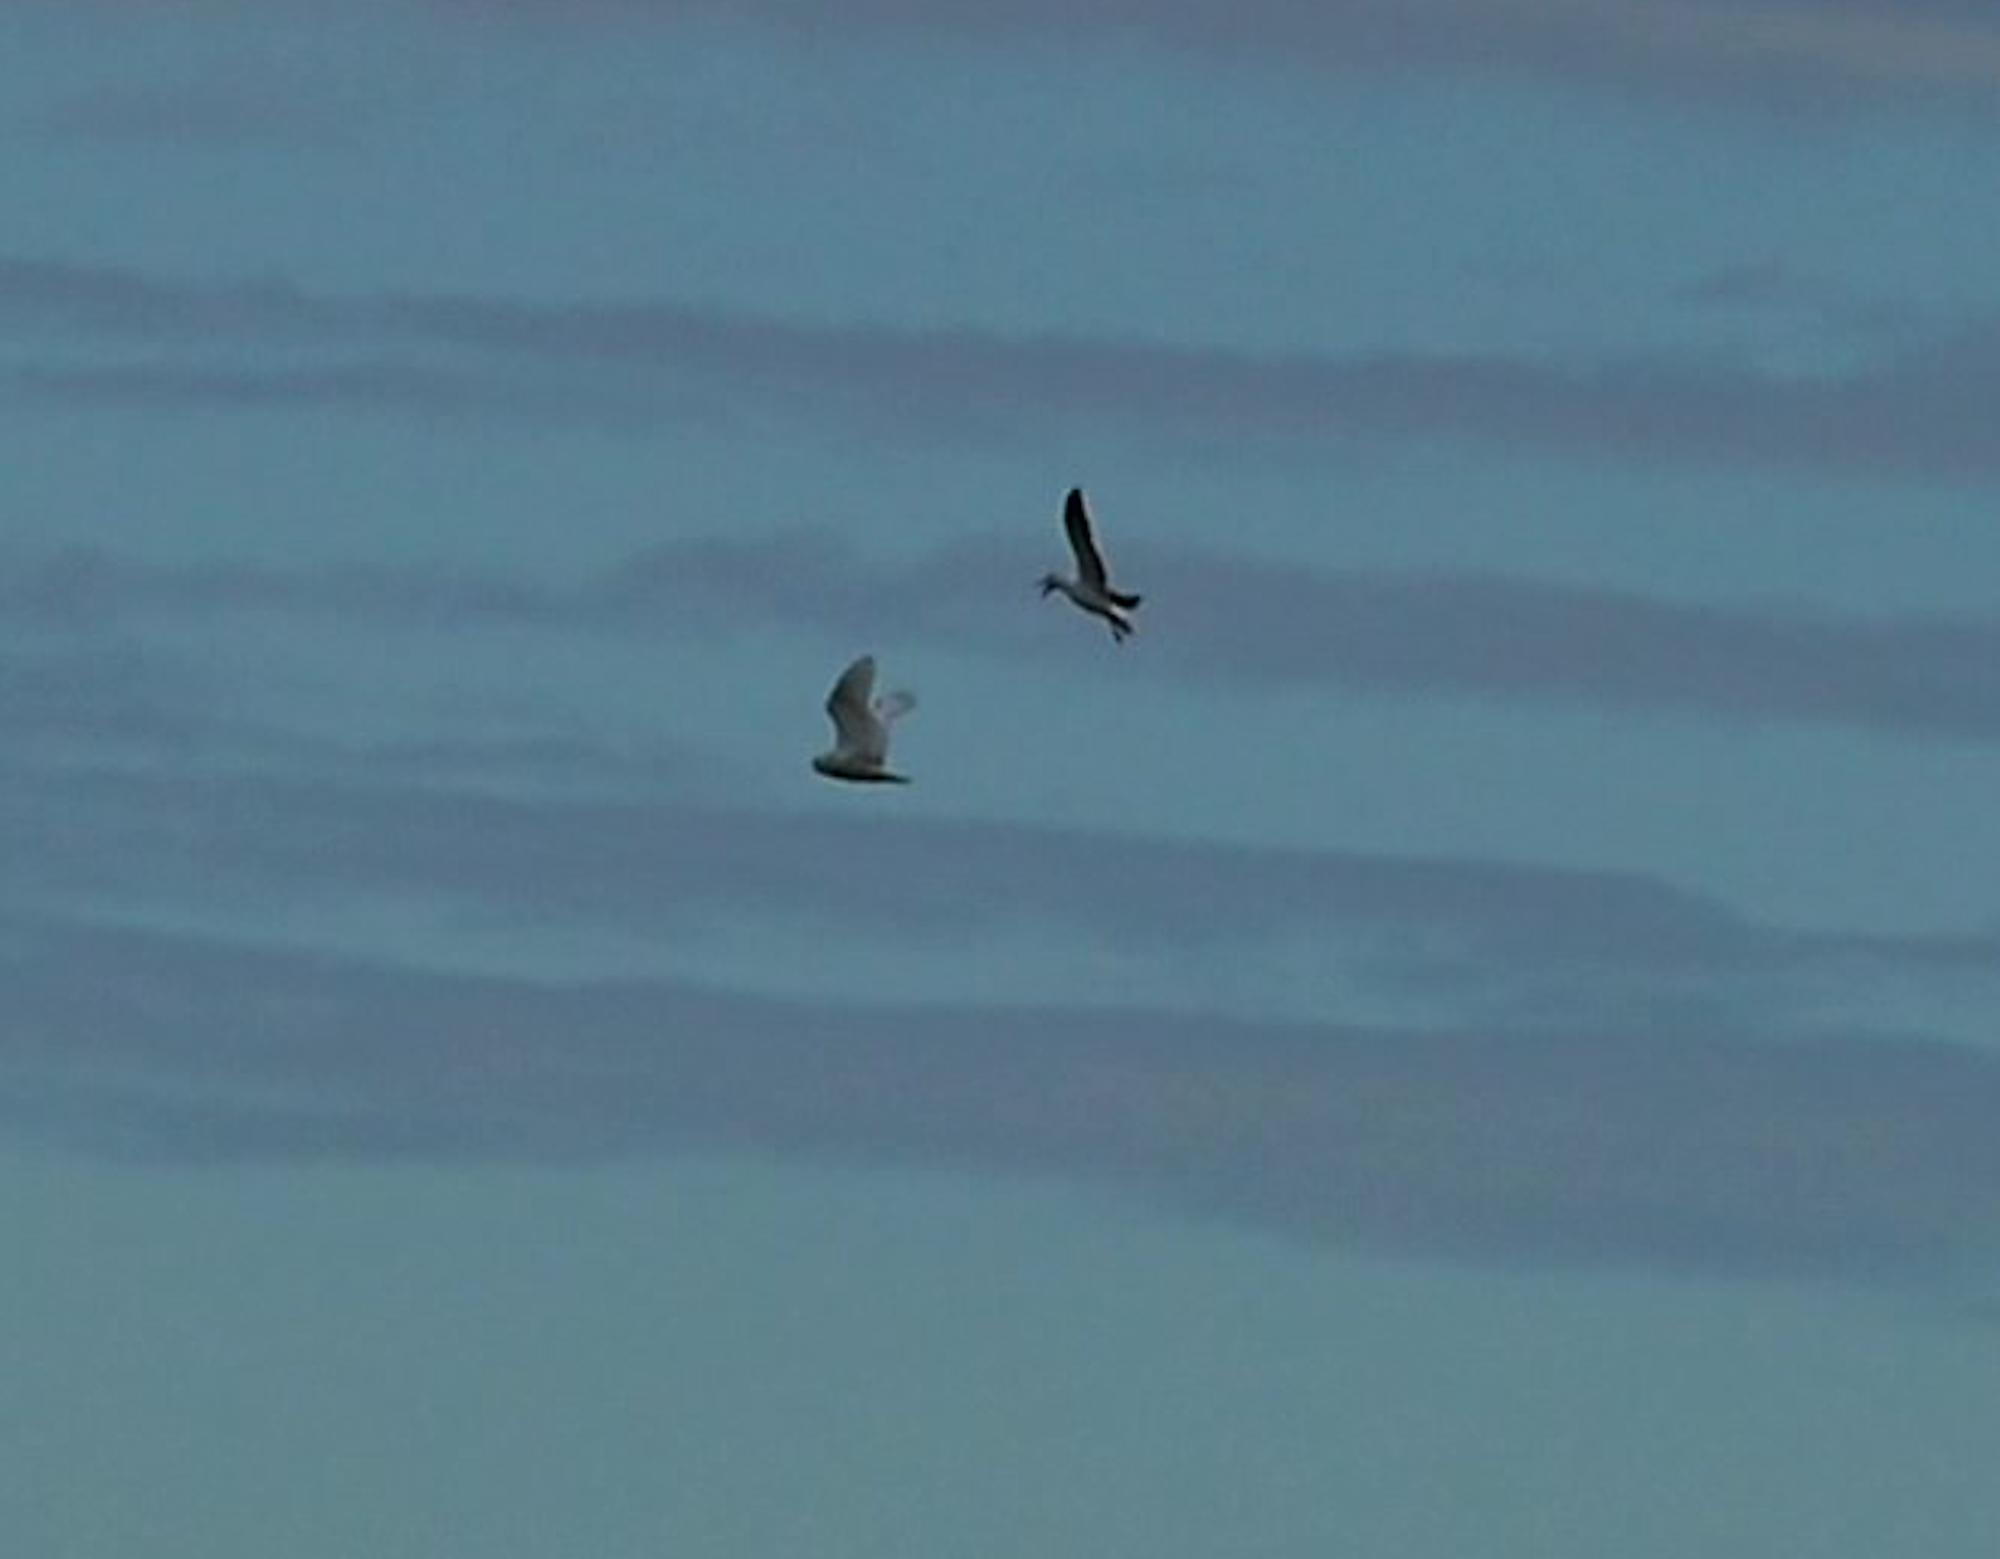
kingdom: Animalia
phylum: Chordata
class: Aves
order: Strigiformes
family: Strigidae
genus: Bubo
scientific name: Bubo scandiacus
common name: Snowy owl
